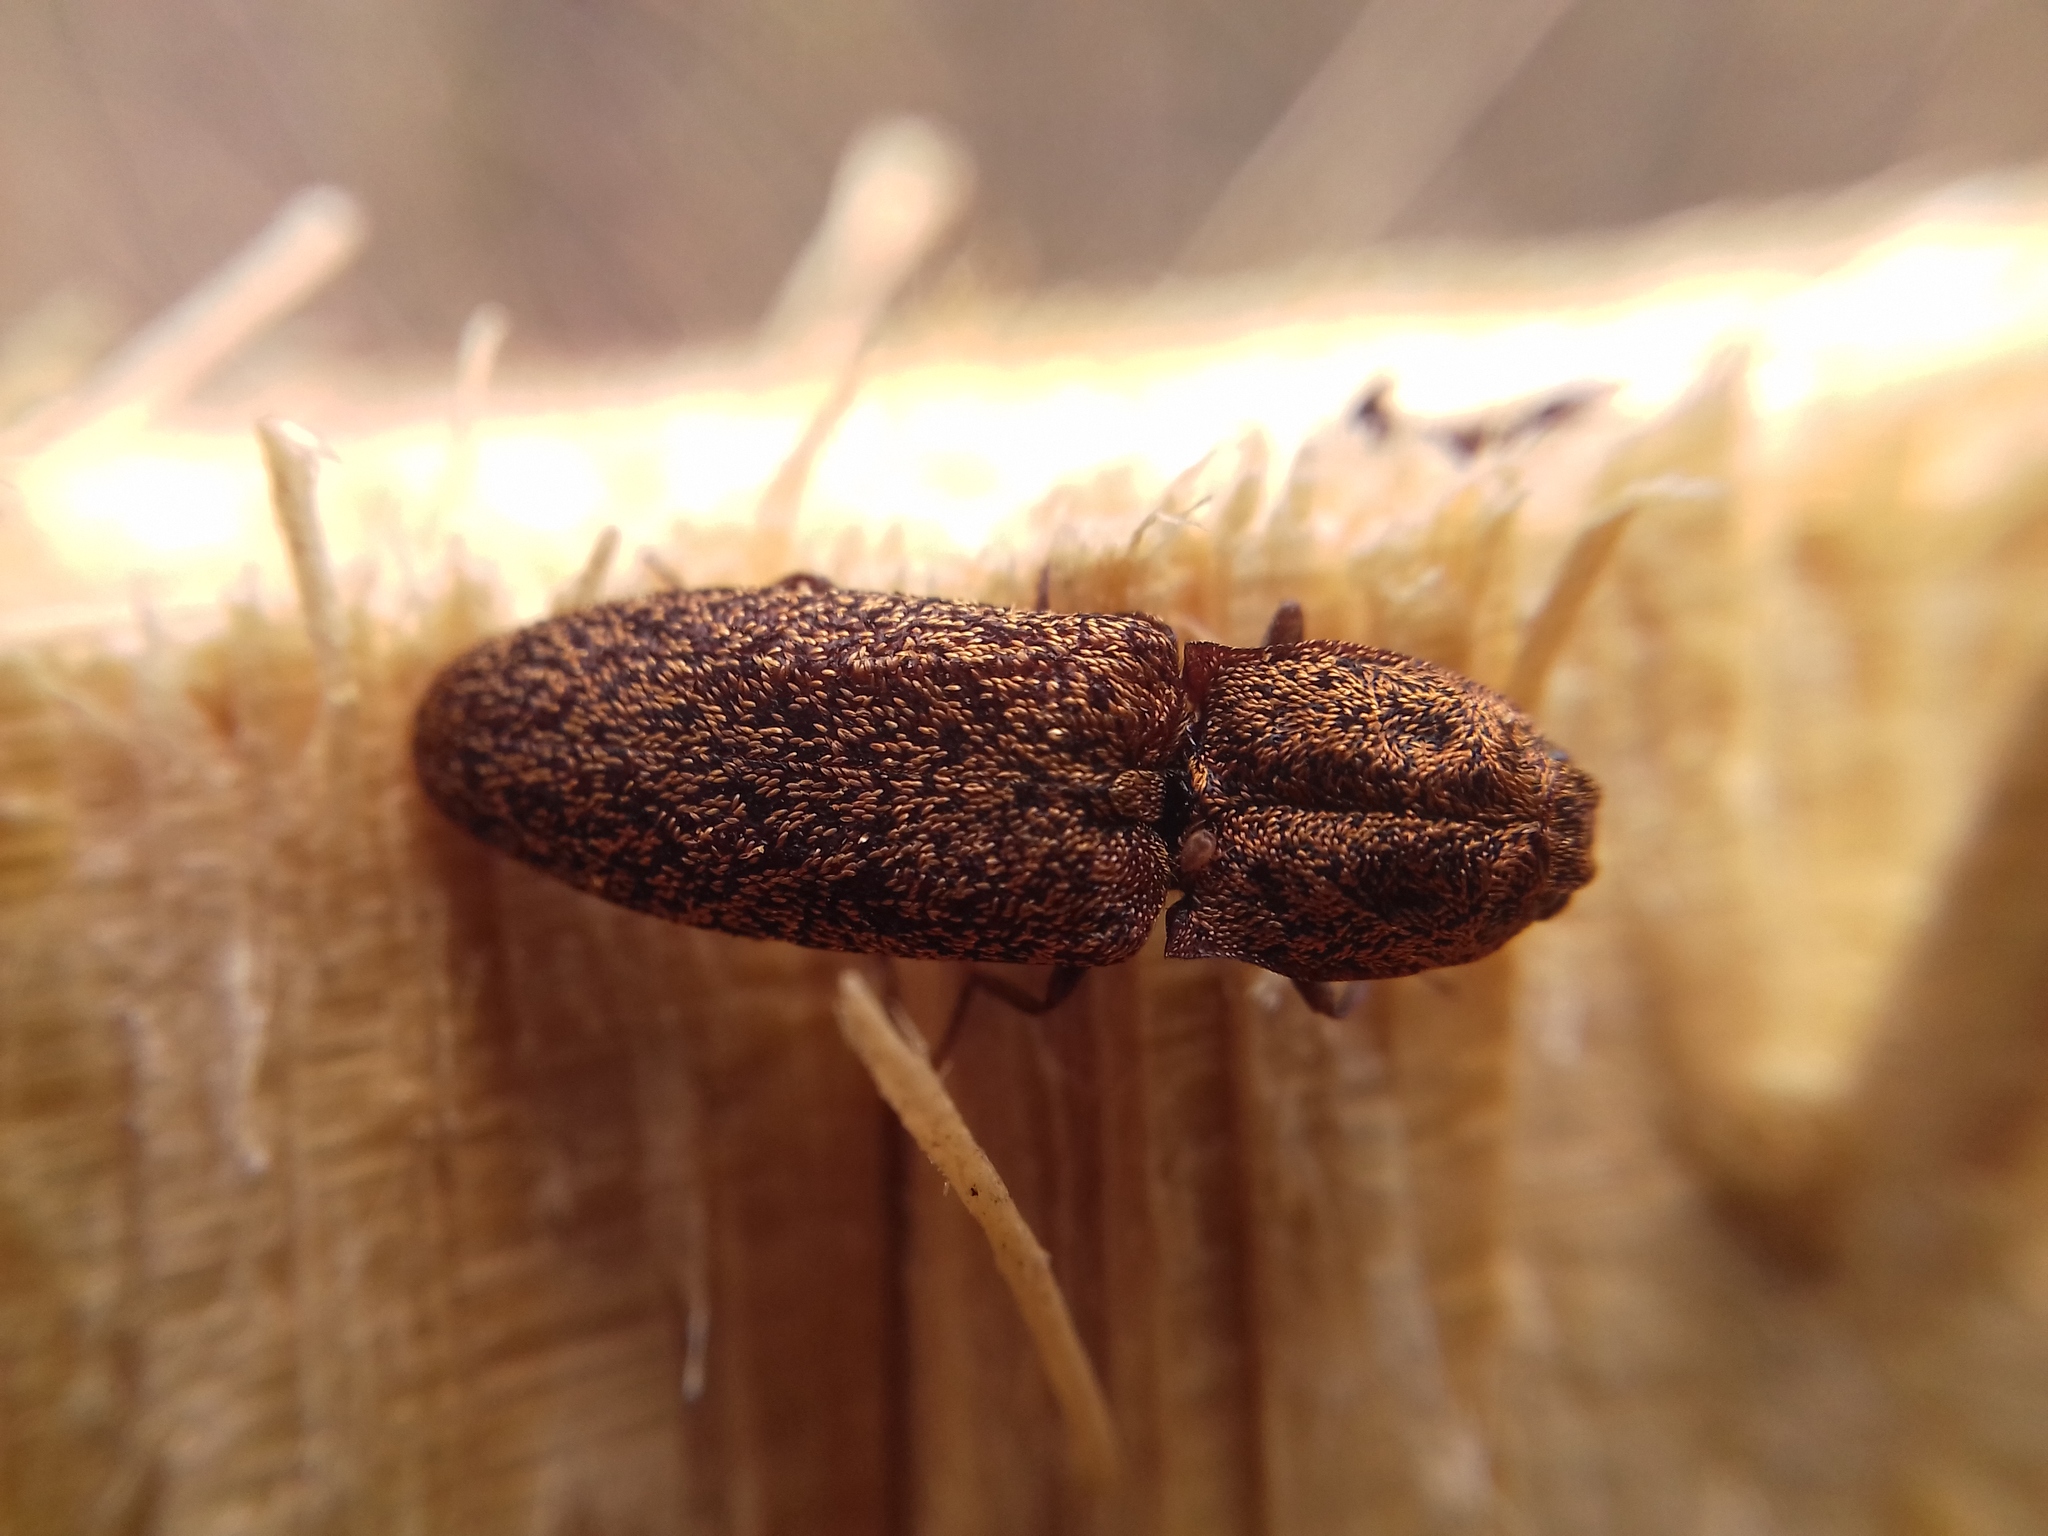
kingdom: Animalia
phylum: Arthropoda
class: Insecta
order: Coleoptera
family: Elateridae
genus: Lacon
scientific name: Lacon lepidopterus
